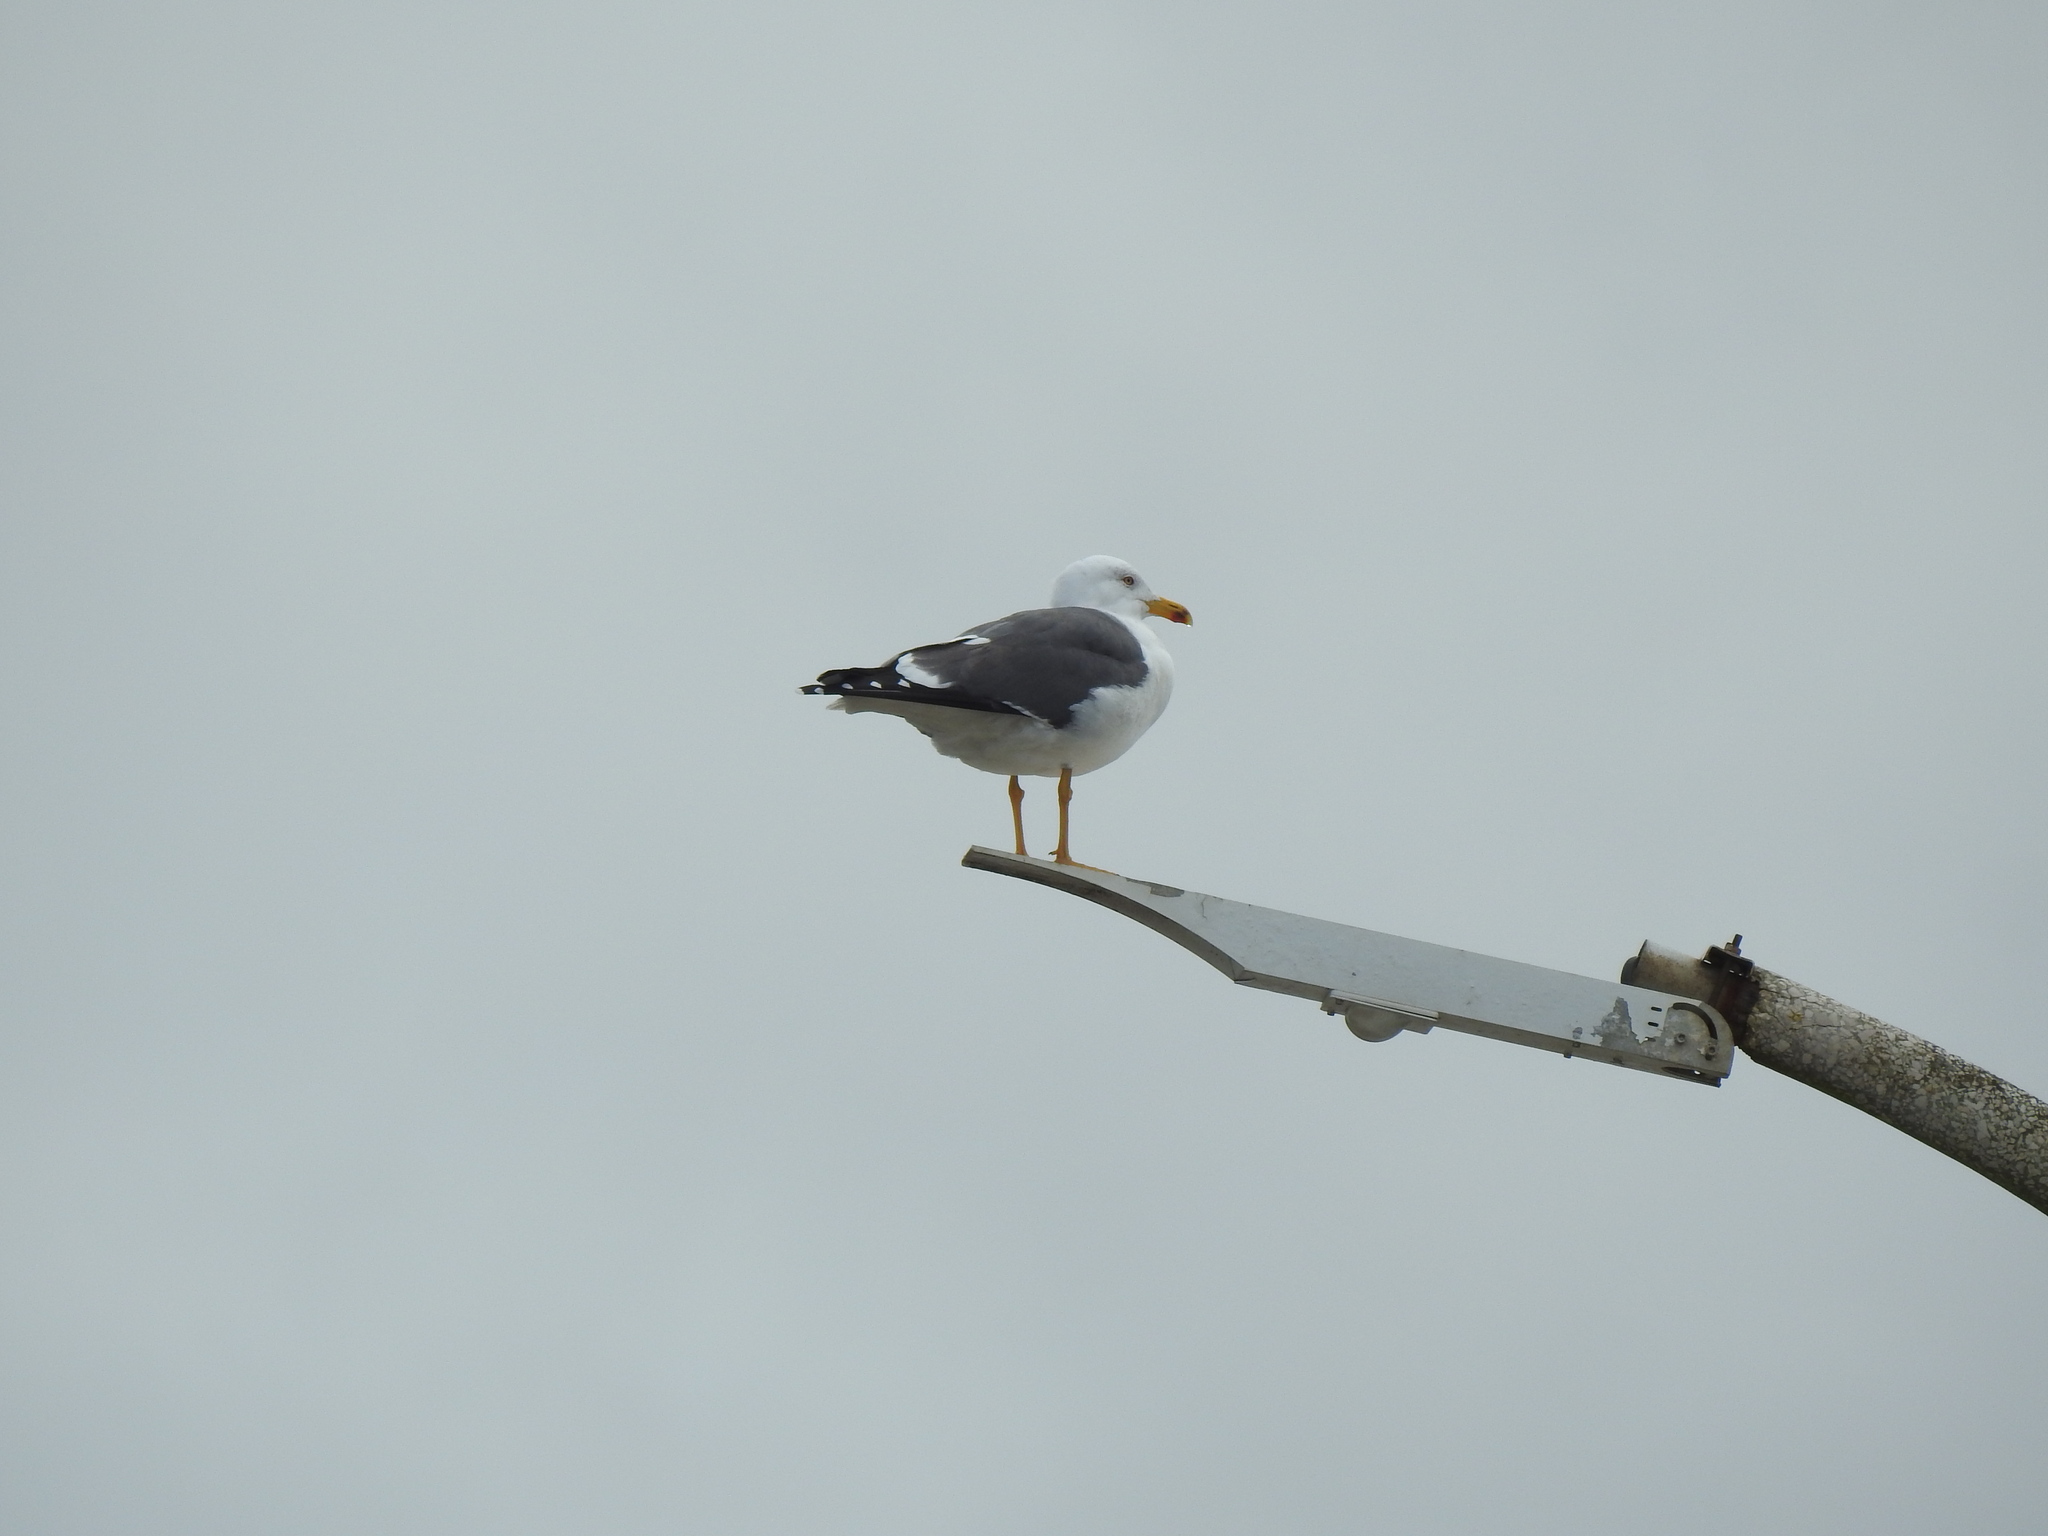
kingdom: Animalia
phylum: Chordata
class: Aves
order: Charadriiformes
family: Laridae
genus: Larus
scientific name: Larus fuscus
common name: Lesser black-backed gull
